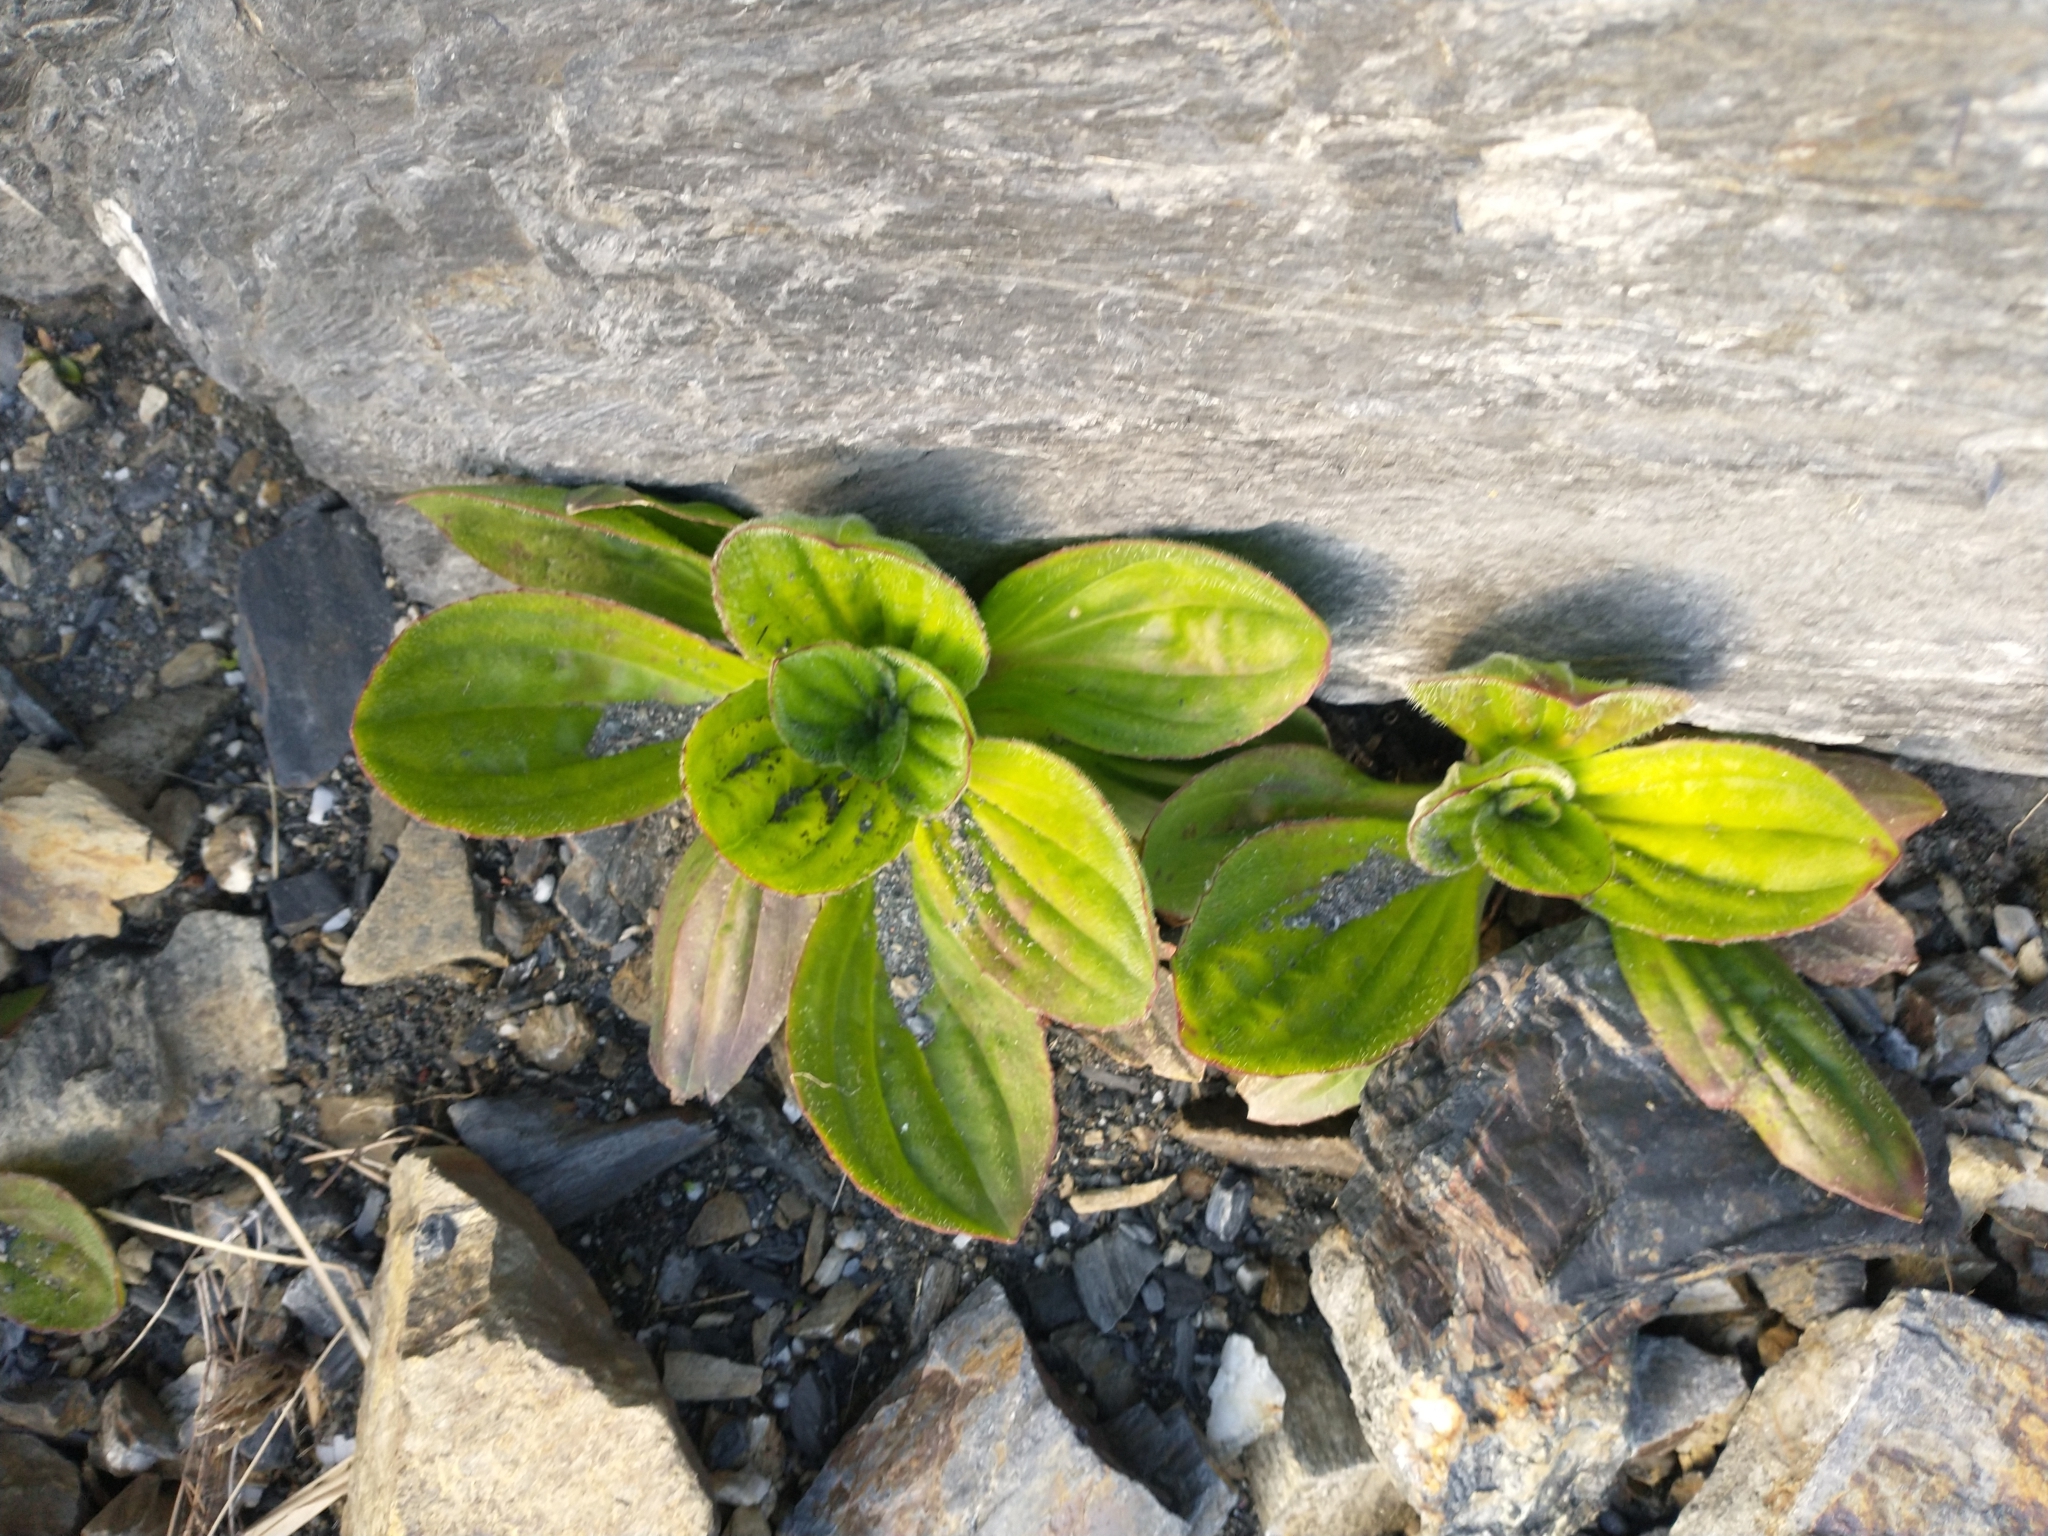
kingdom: Plantae
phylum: Tracheophyta
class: Magnoliopsida
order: Lamiales
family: Plantaginaceae
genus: Plantago
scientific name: Plantago subnuda
